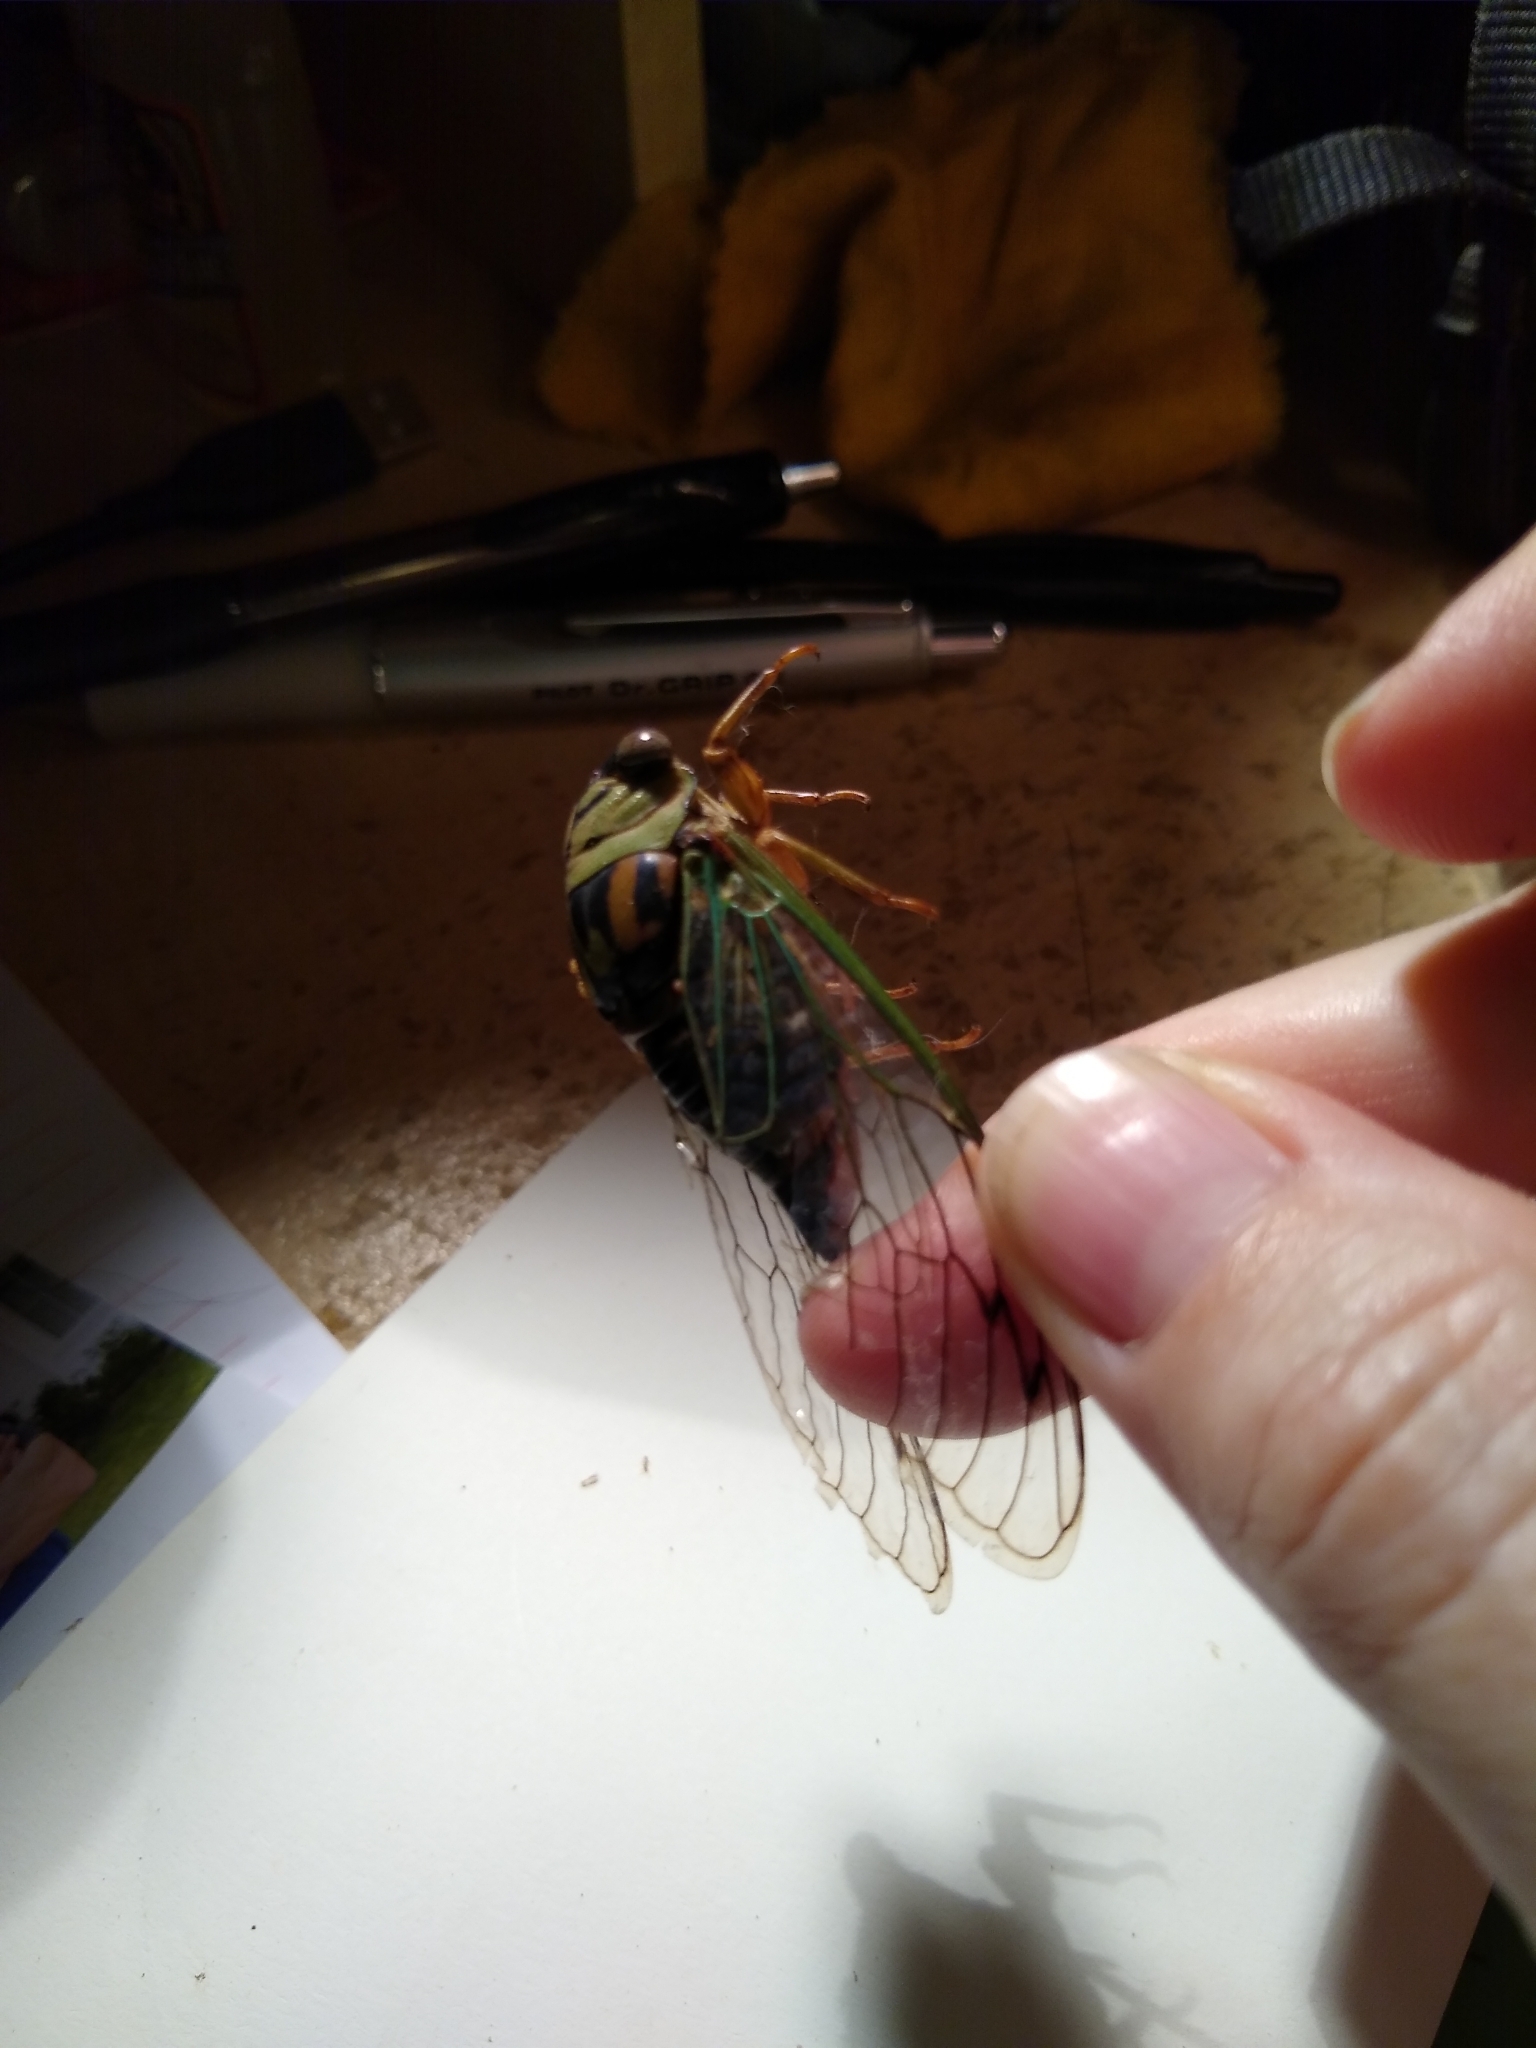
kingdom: Animalia
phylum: Arthropoda
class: Insecta
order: Hemiptera
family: Cicadidae
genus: Megatibicen
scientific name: Megatibicen resh
